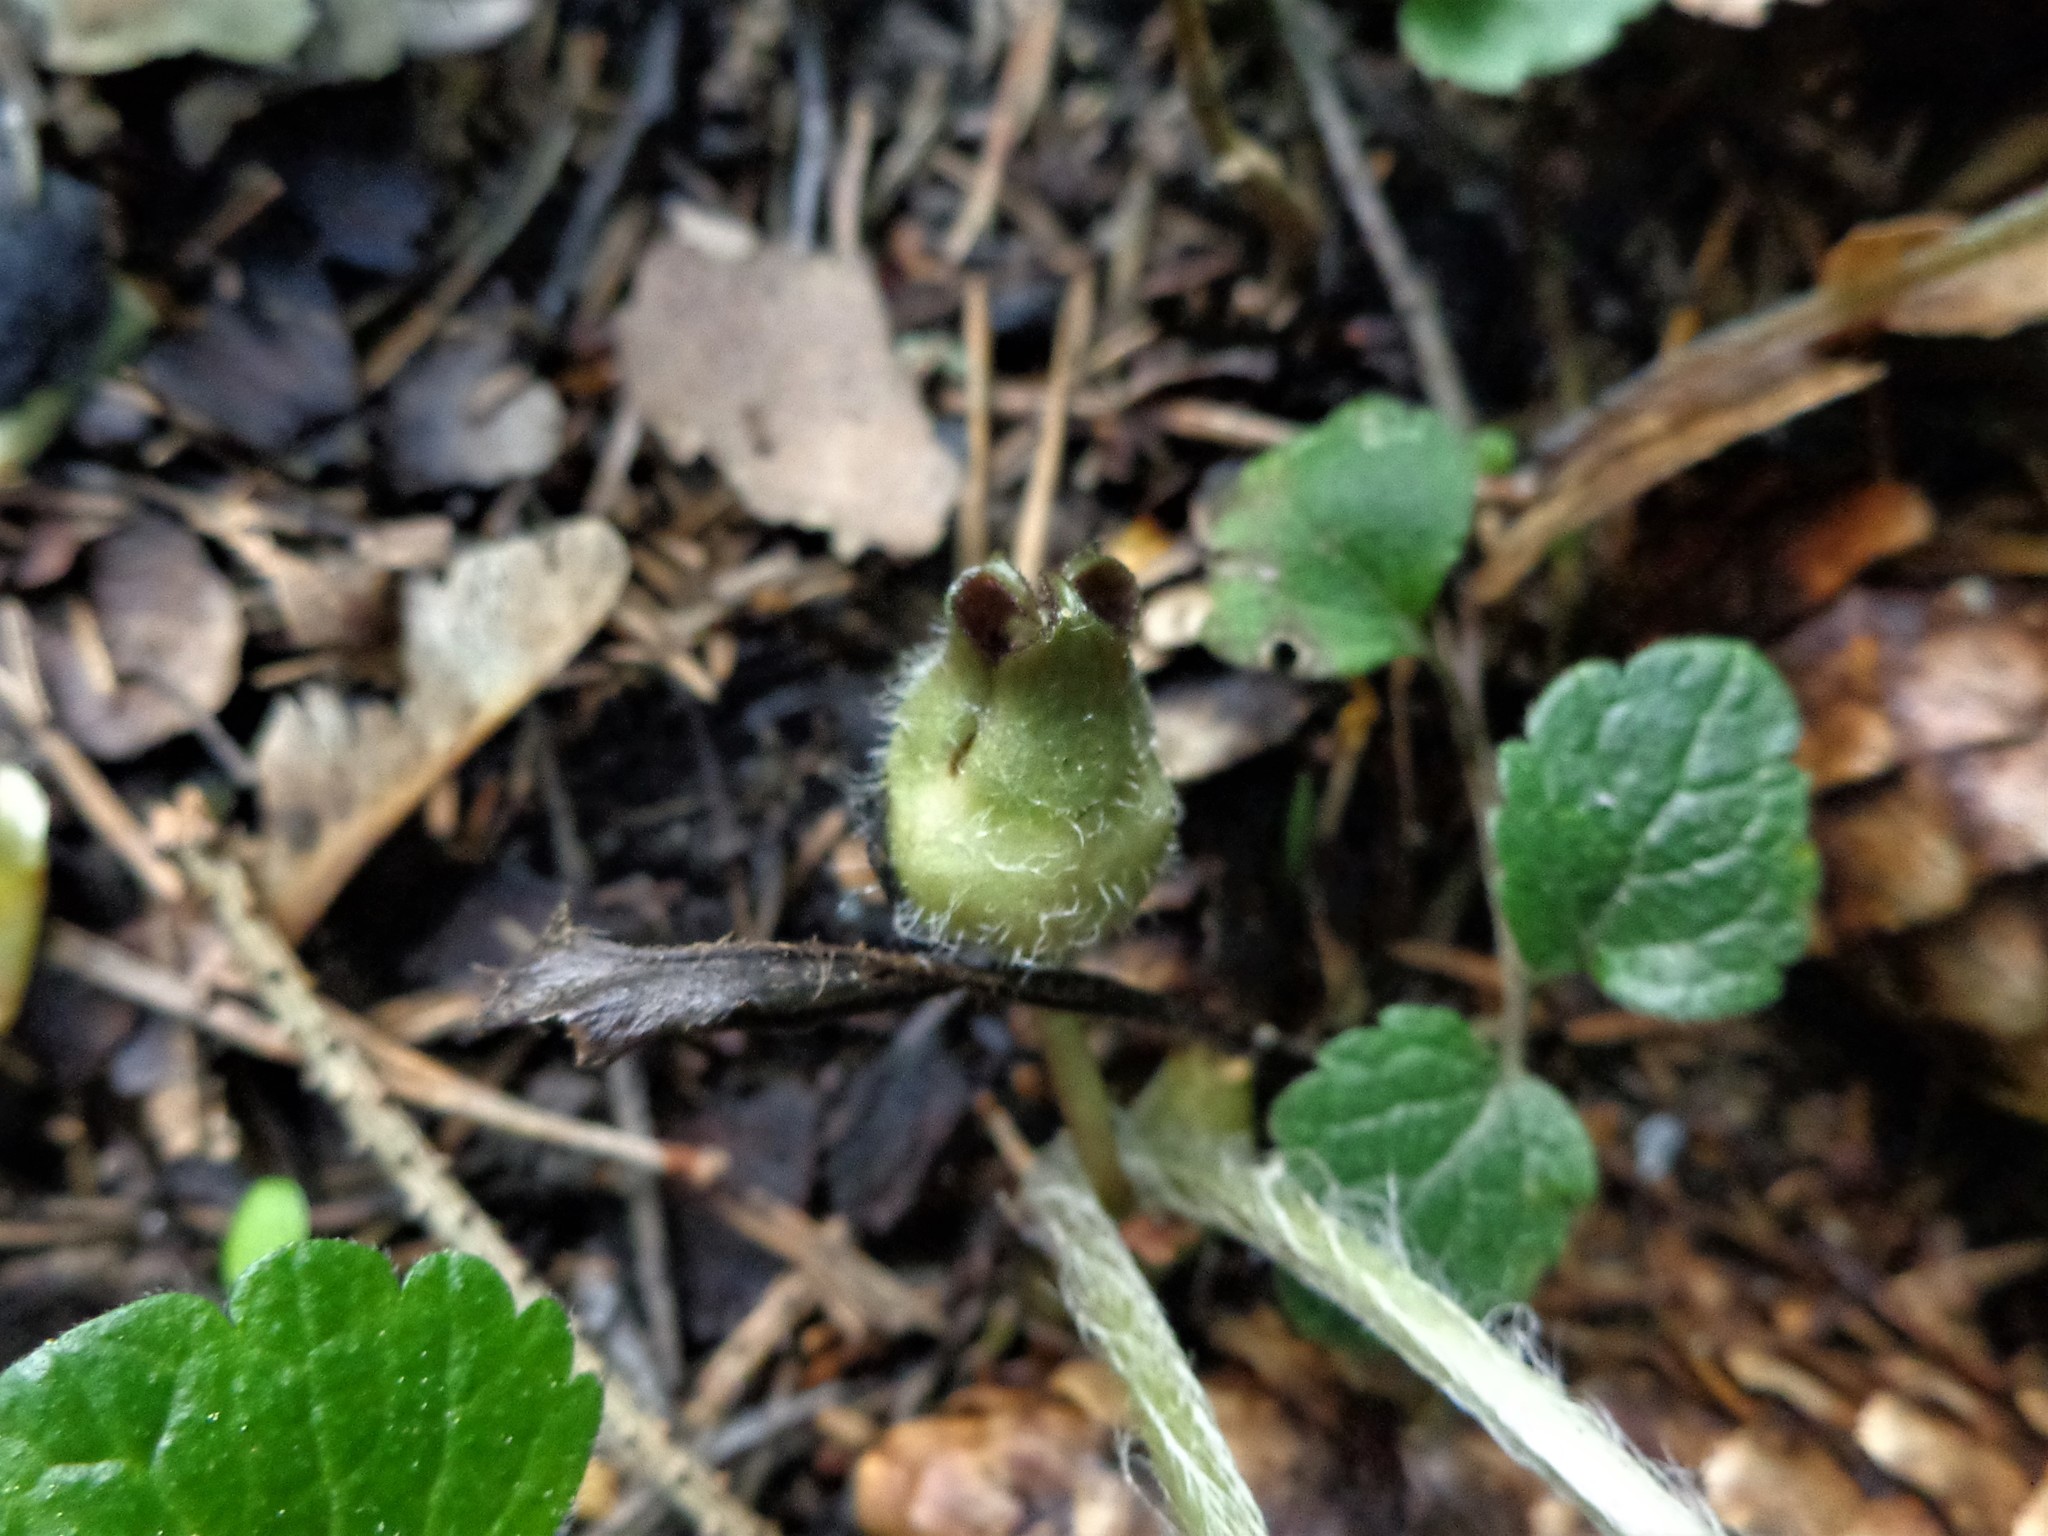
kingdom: Plantae
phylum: Tracheophyta
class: Magnoliopsida
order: Piperales
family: Aristolochiaceae
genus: Asarum
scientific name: Asarum europaeum
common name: Asarabacca
